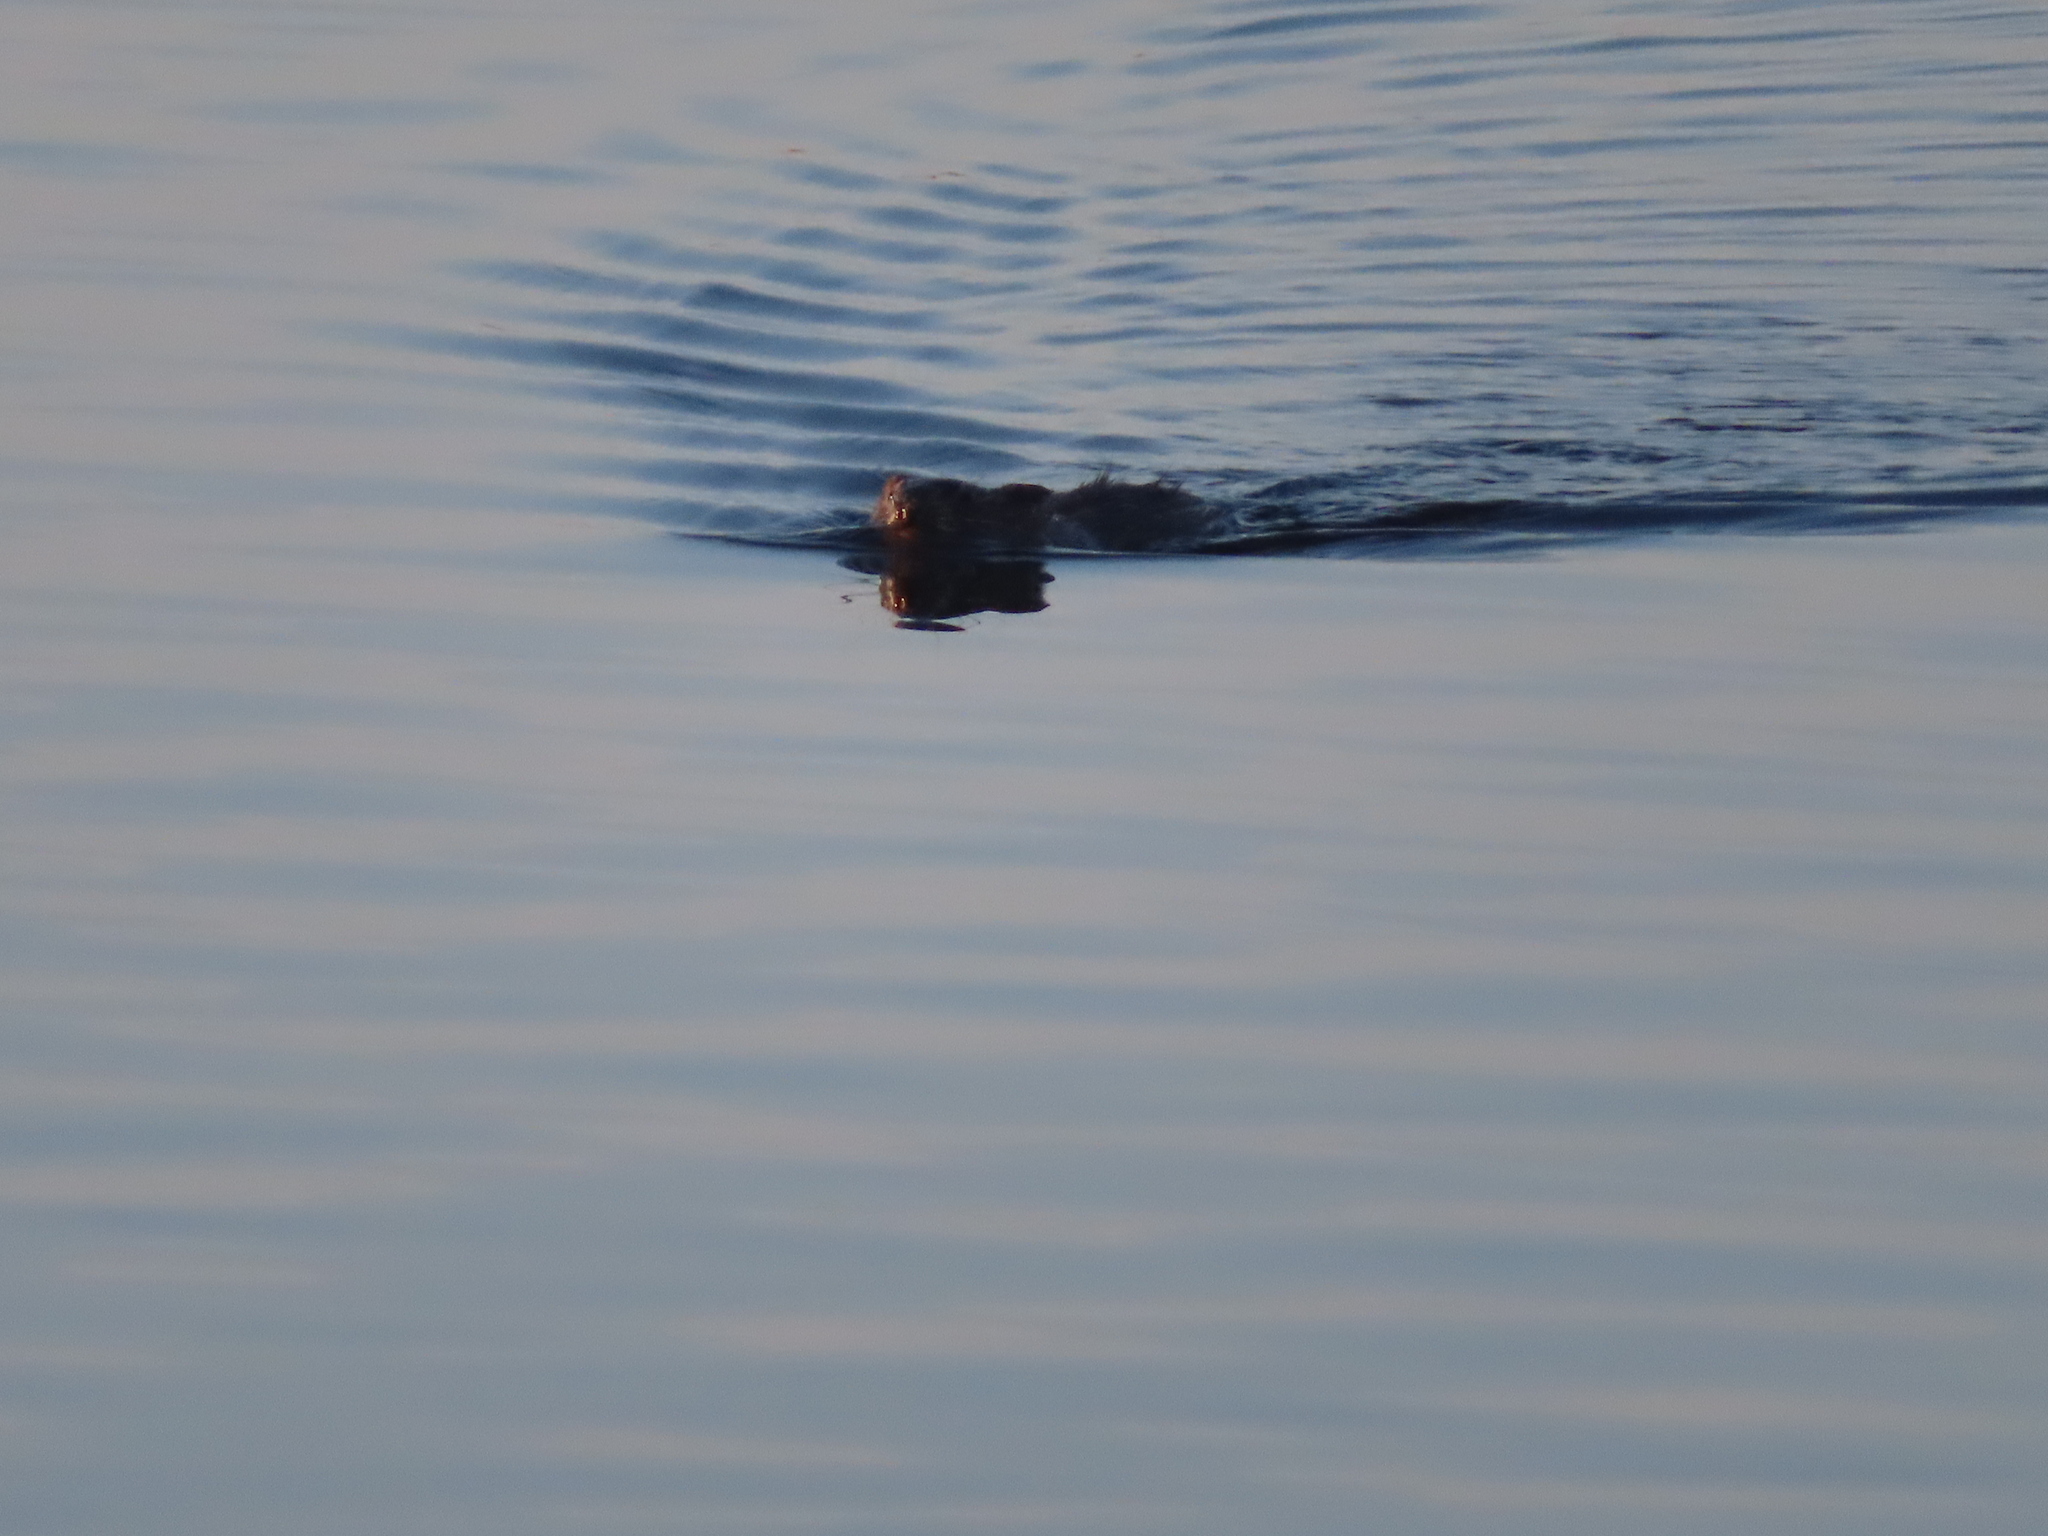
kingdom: Animalia
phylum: Chordata
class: Mammalia
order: Rodentia
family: Cricetidae
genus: Ondatra
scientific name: Ondatra zibethicus
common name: Muskrat
